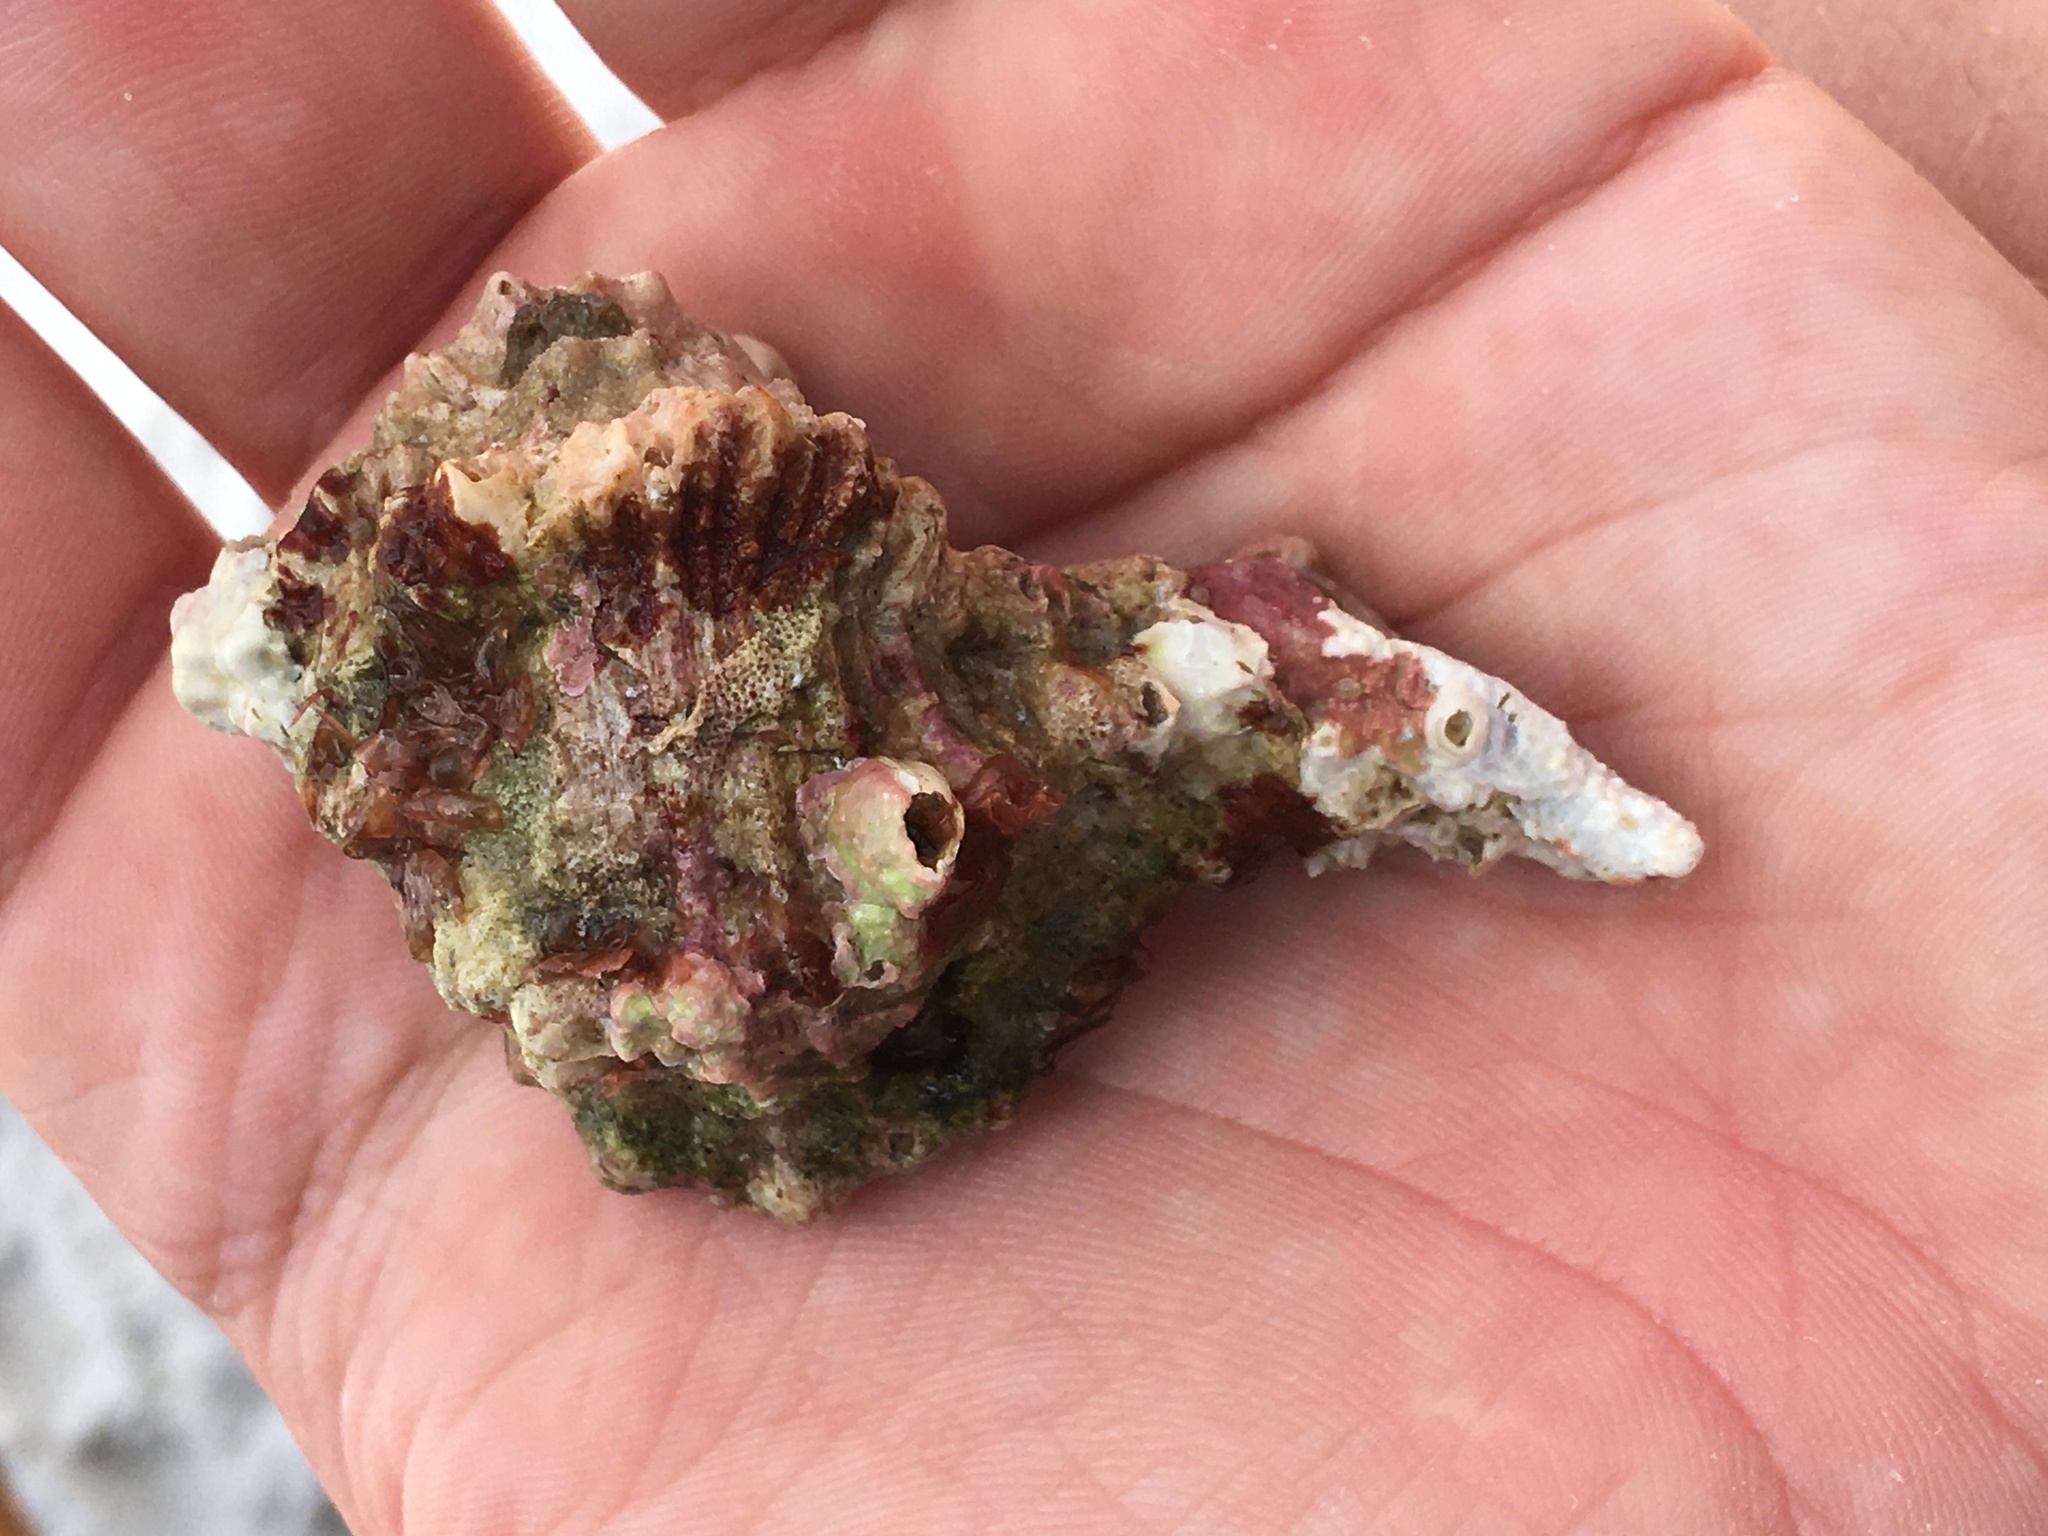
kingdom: Animalia
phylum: Mollusca
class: Gastropoda
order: Neogastropoda
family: Muricidae
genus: Hexaplex
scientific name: Hexaplex fulvescens
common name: Tawny murex
